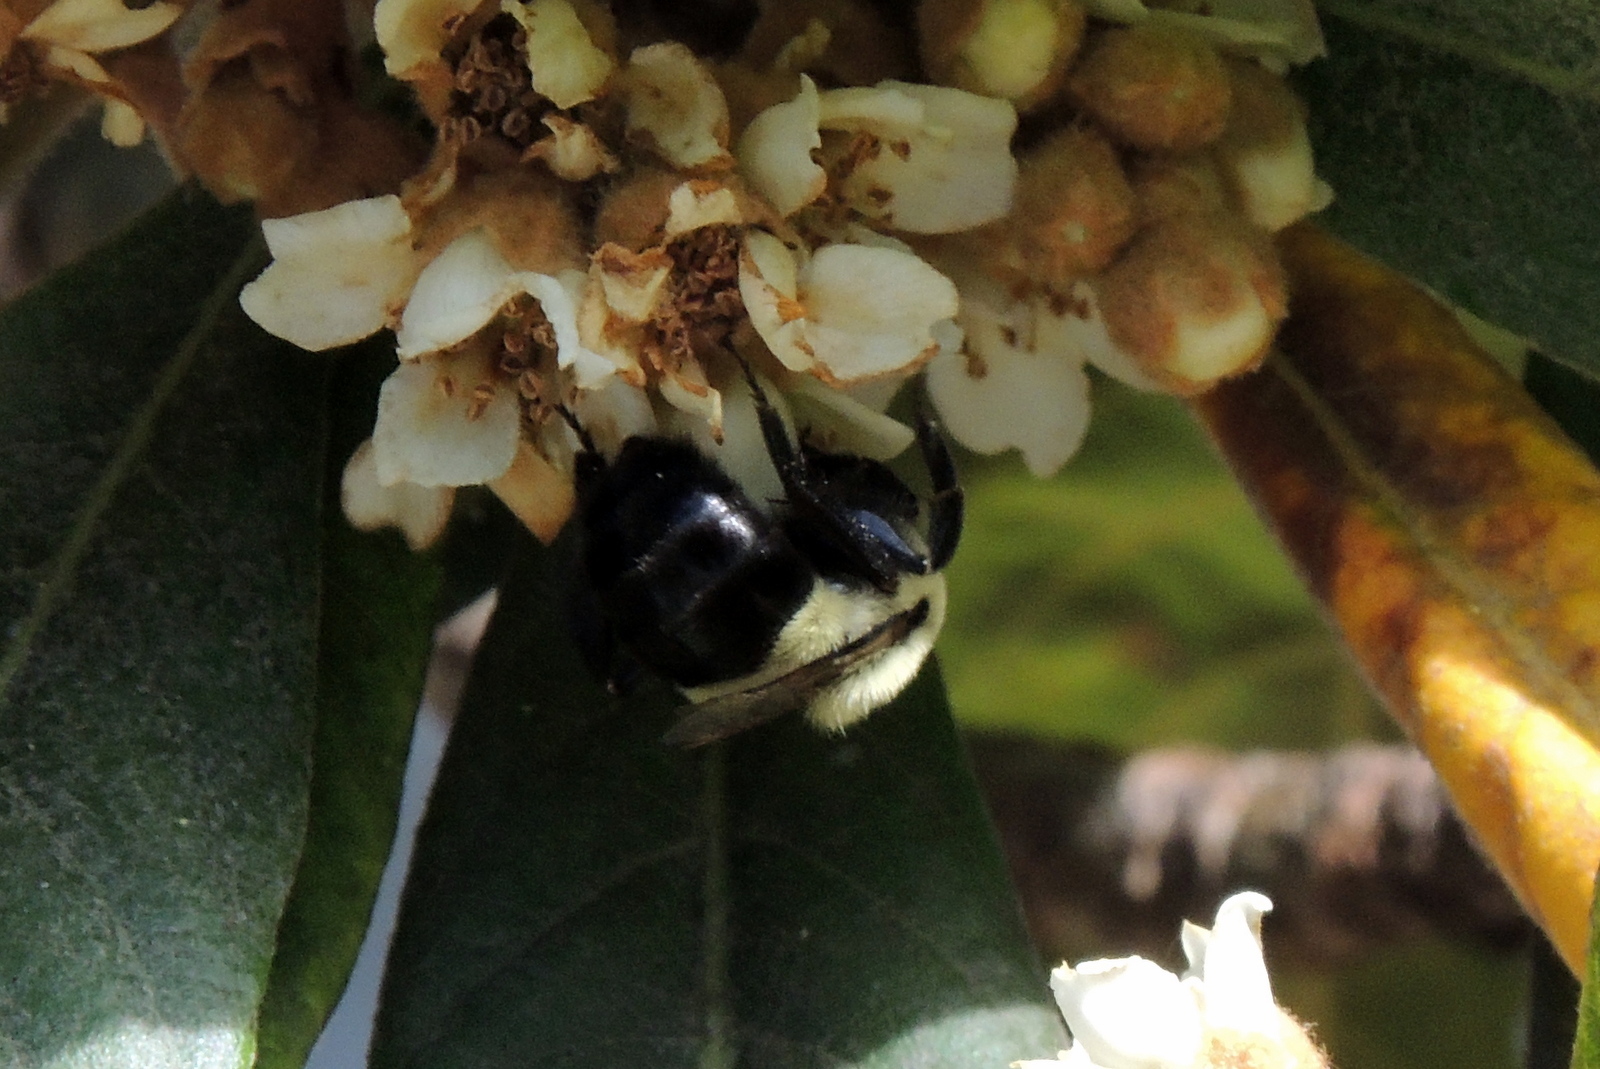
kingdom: Animalia
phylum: Arthropoda
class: Insecta
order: Hymenoptera
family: Apidae
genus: Bombus
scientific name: Bombus impatiens
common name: Common eastern bumble bee
